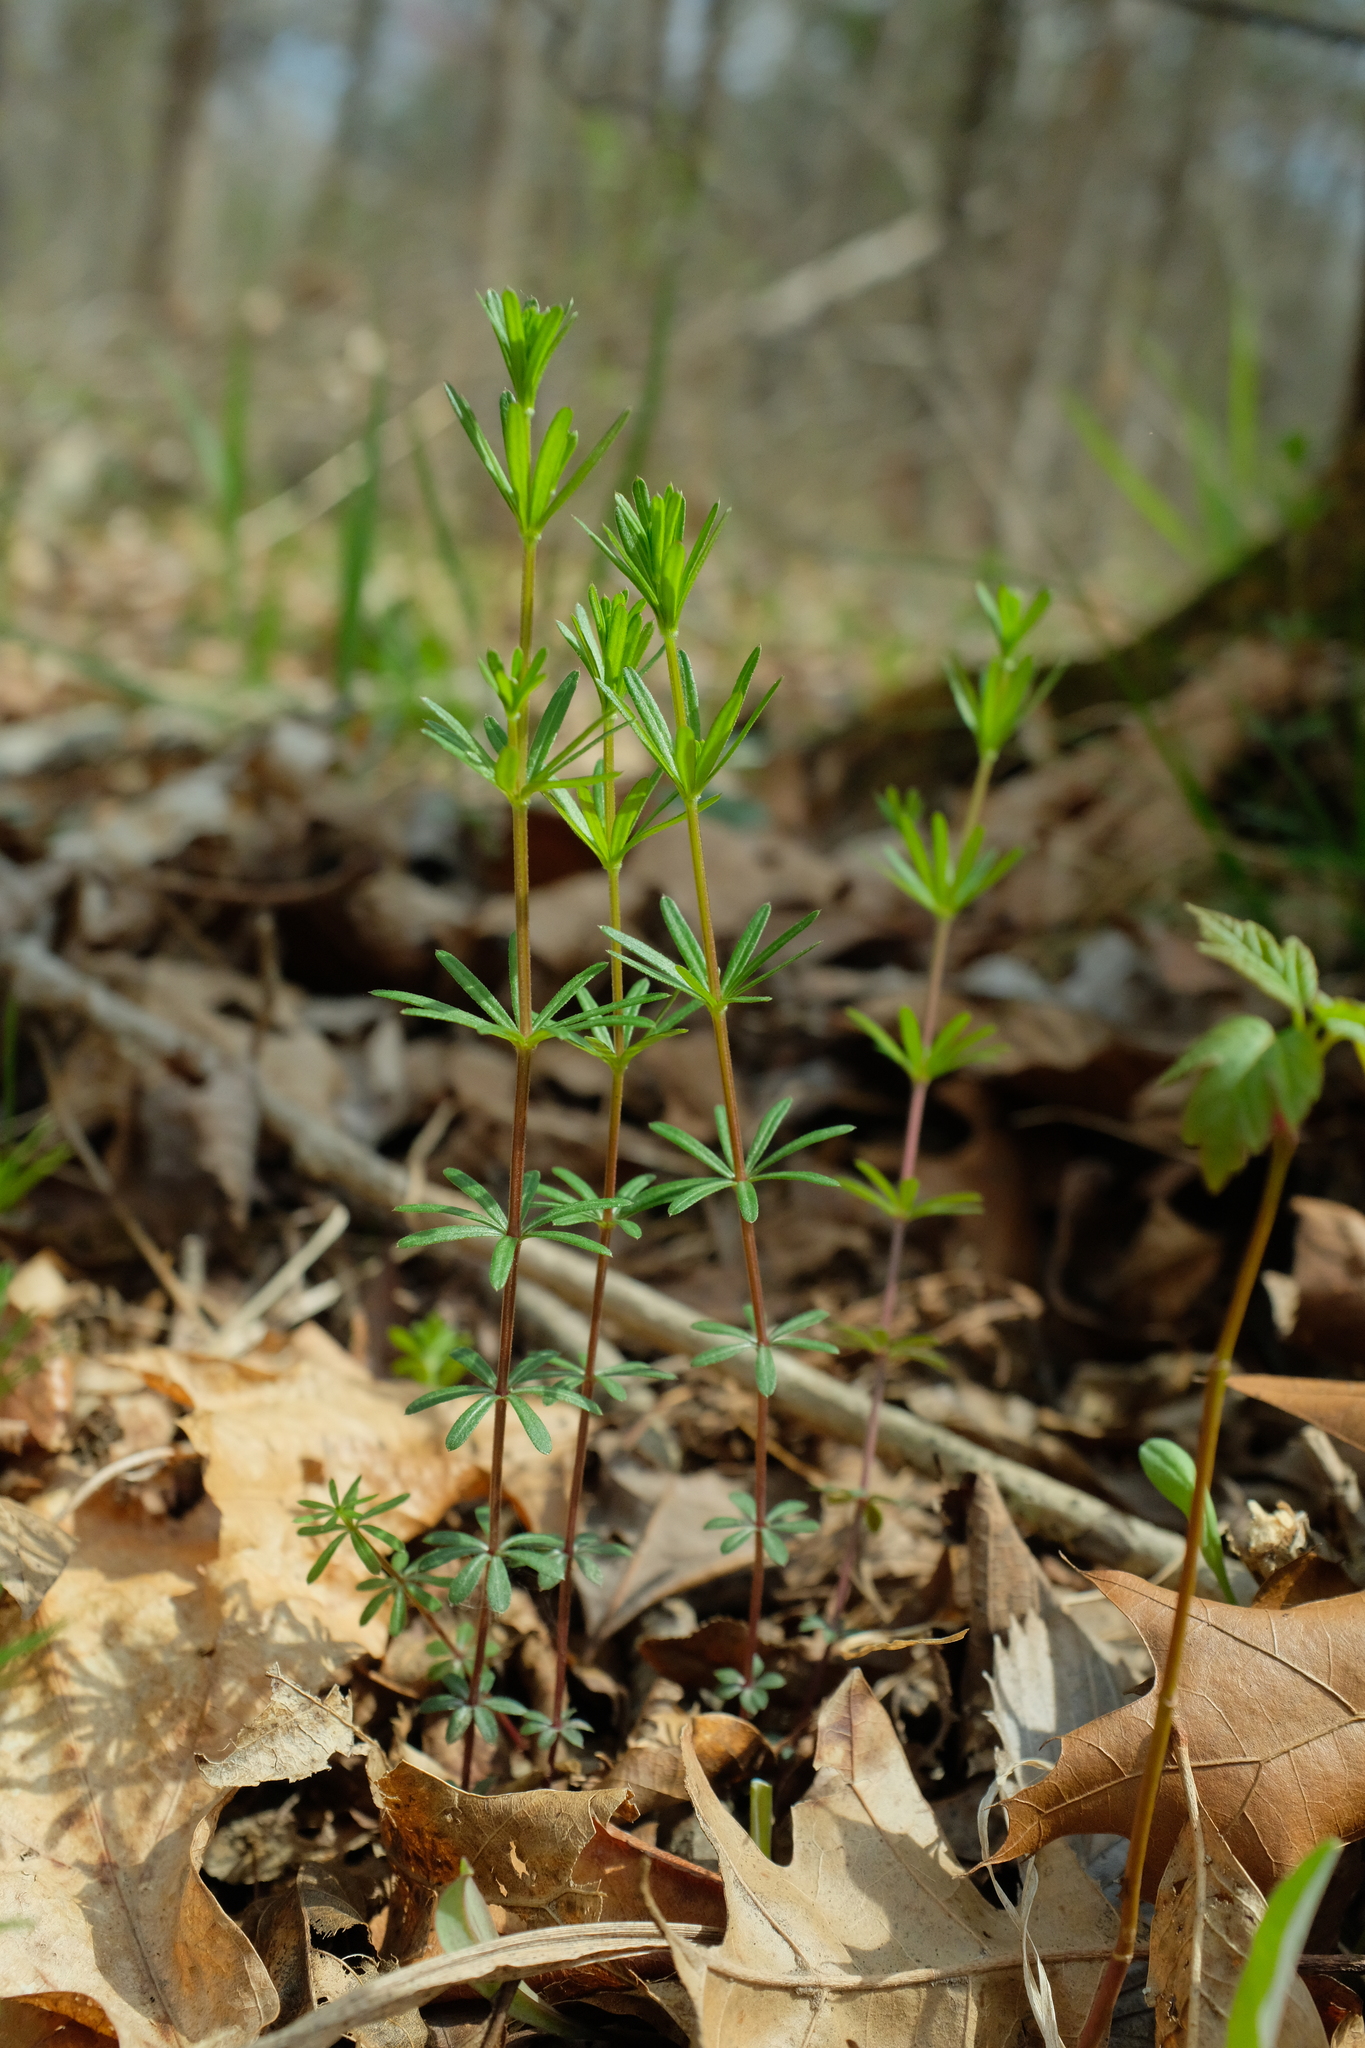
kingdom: Plantae
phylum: Tracheophyta
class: Magnoliopsida
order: Gentianales
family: Rubiaceae
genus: Galium
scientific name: Galium concinnum
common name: Shining bedstraw
